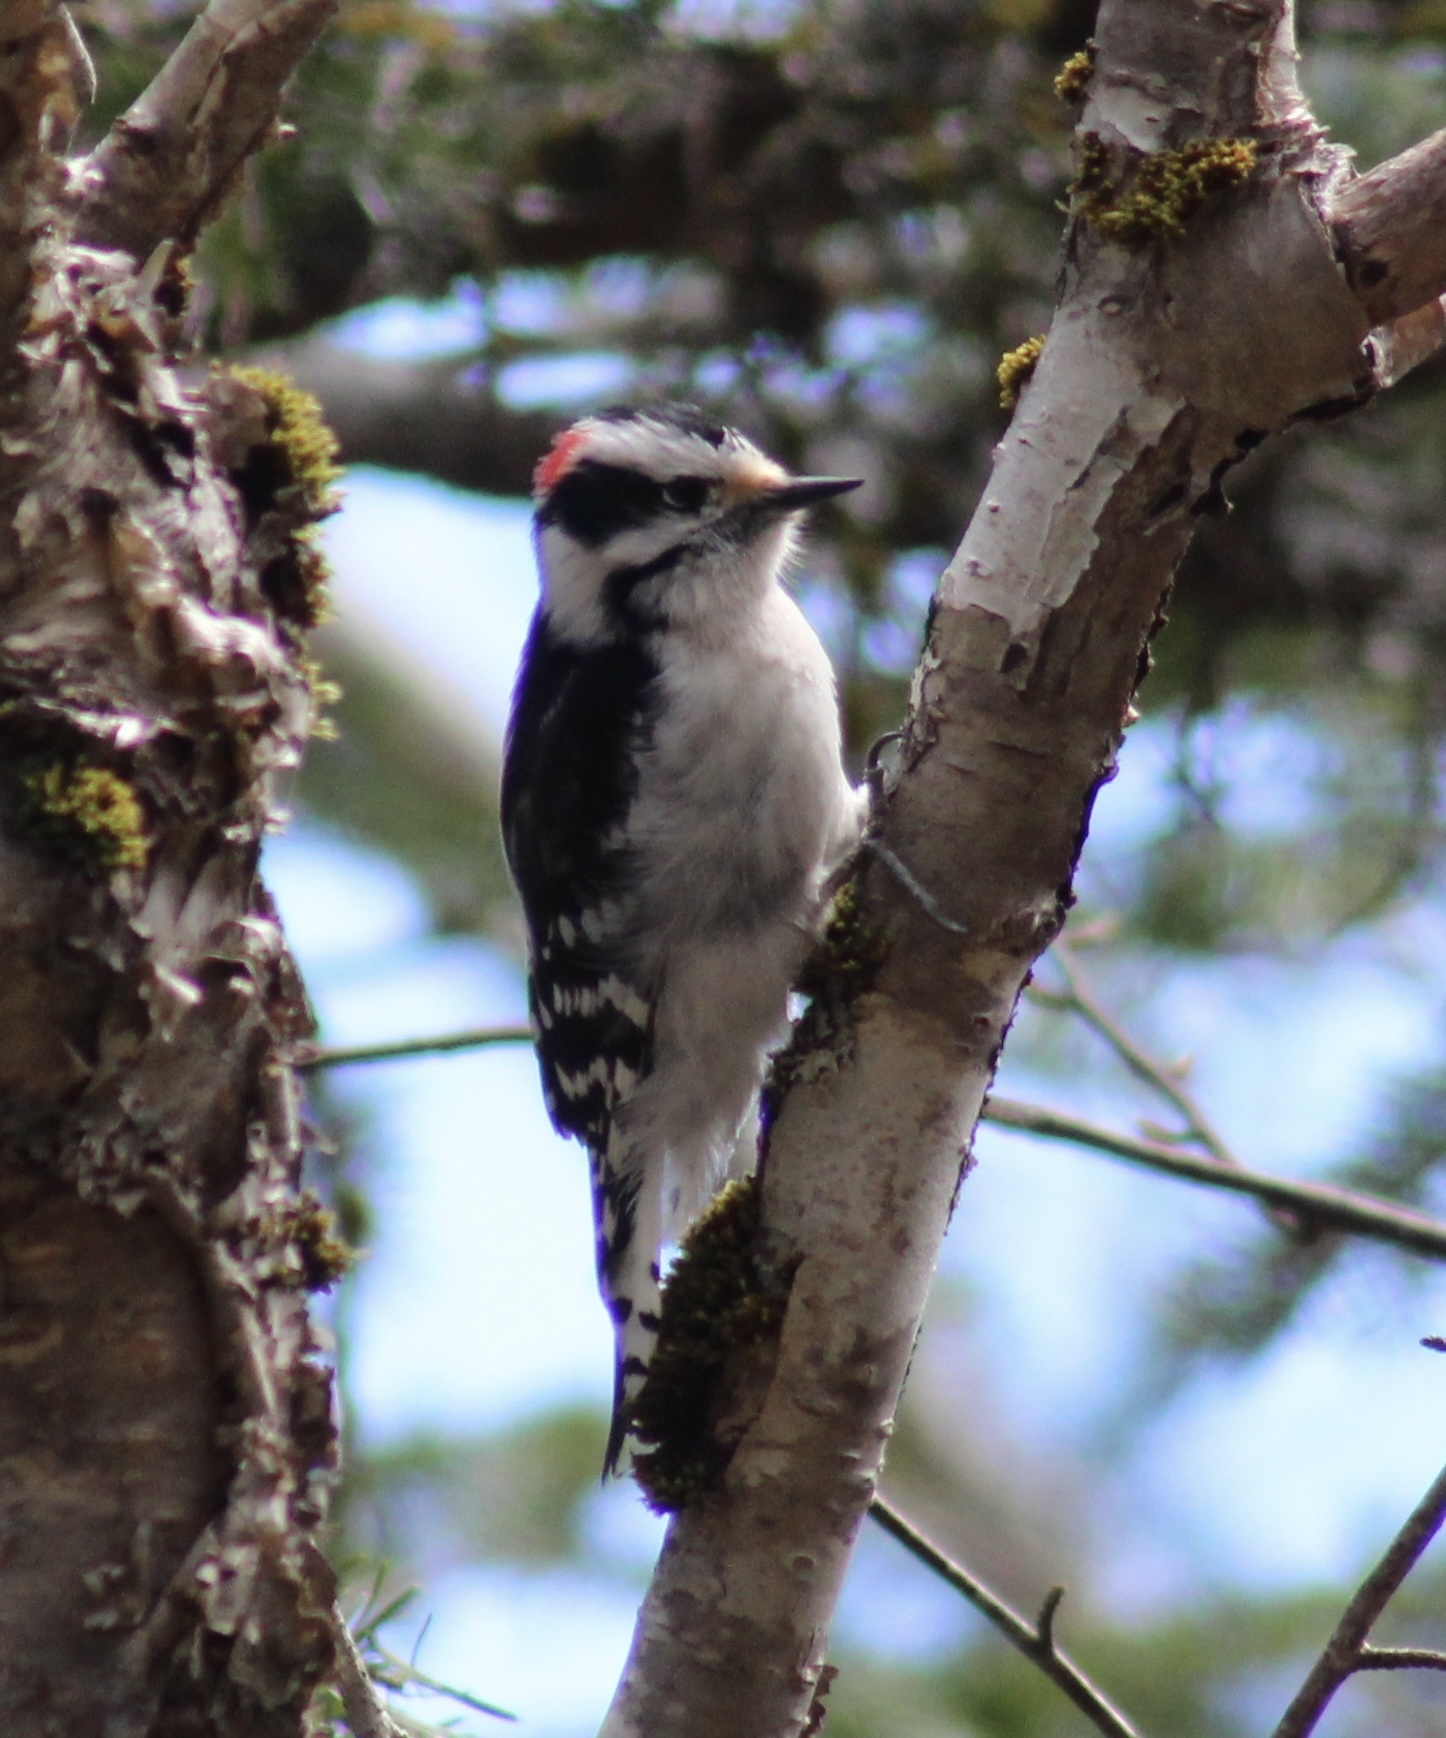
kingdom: Animalia
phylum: Chordata
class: Aves
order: Piciformes
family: Picidae
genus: Dryobates
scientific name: Dryobates pubescens
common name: Downy woodpecker
